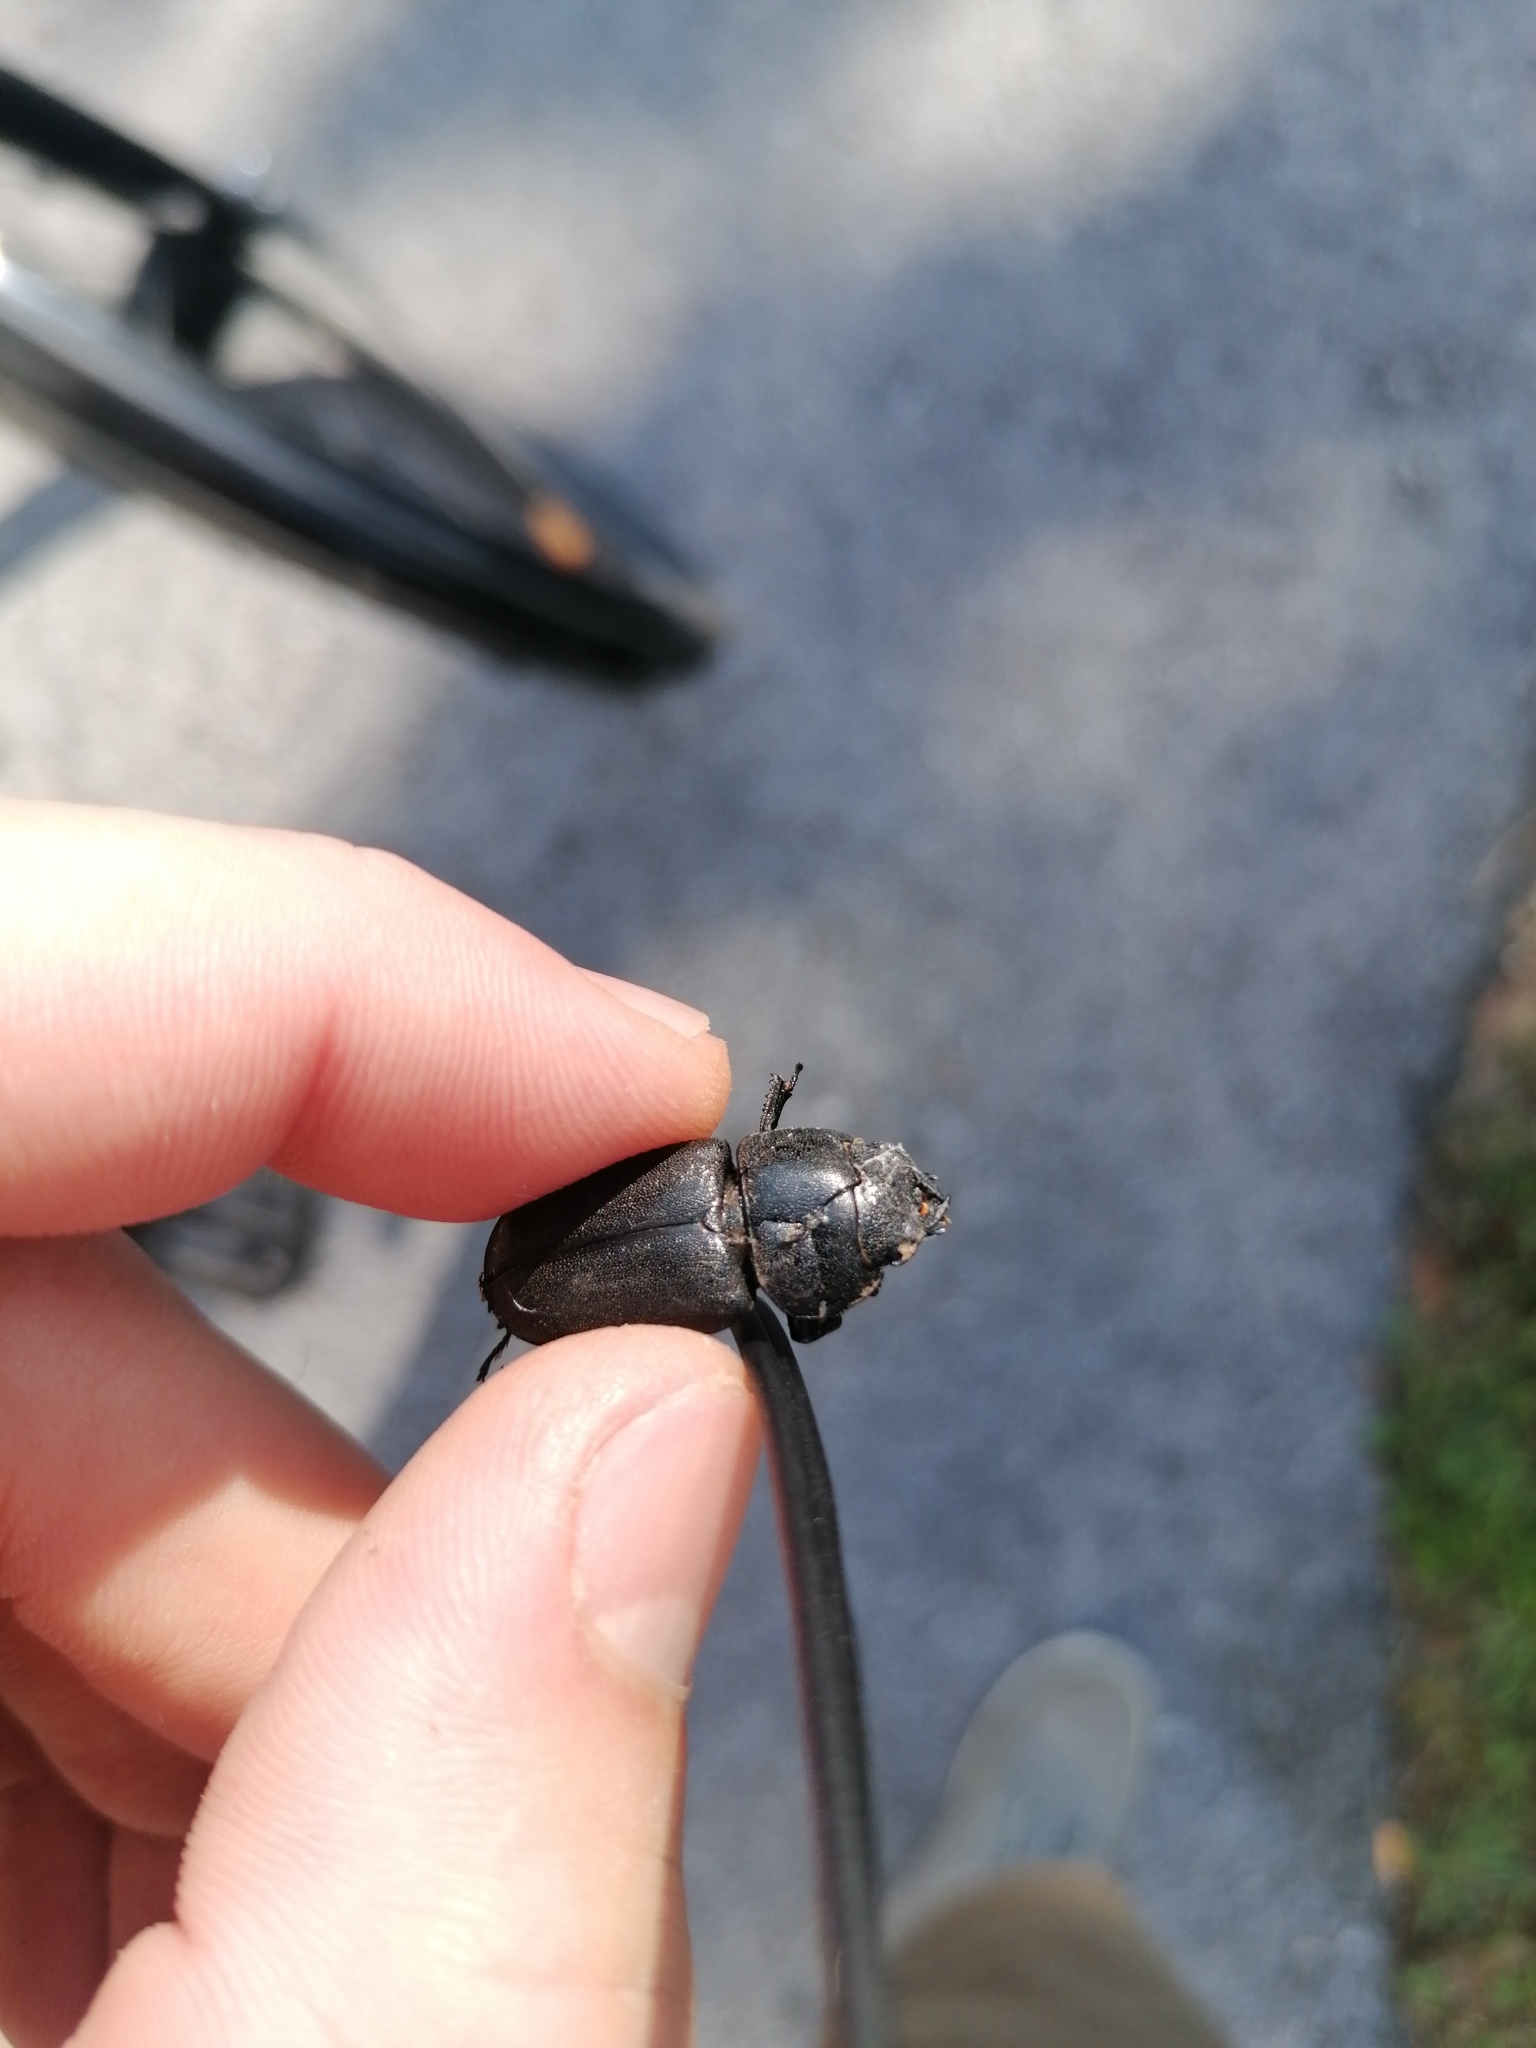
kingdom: Animalia
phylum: Arthropoda
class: Insecta
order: Coleoptera
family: Lucanidae
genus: Dorcus
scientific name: Dorcus parallelipipedus
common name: Lesser stag beetle
